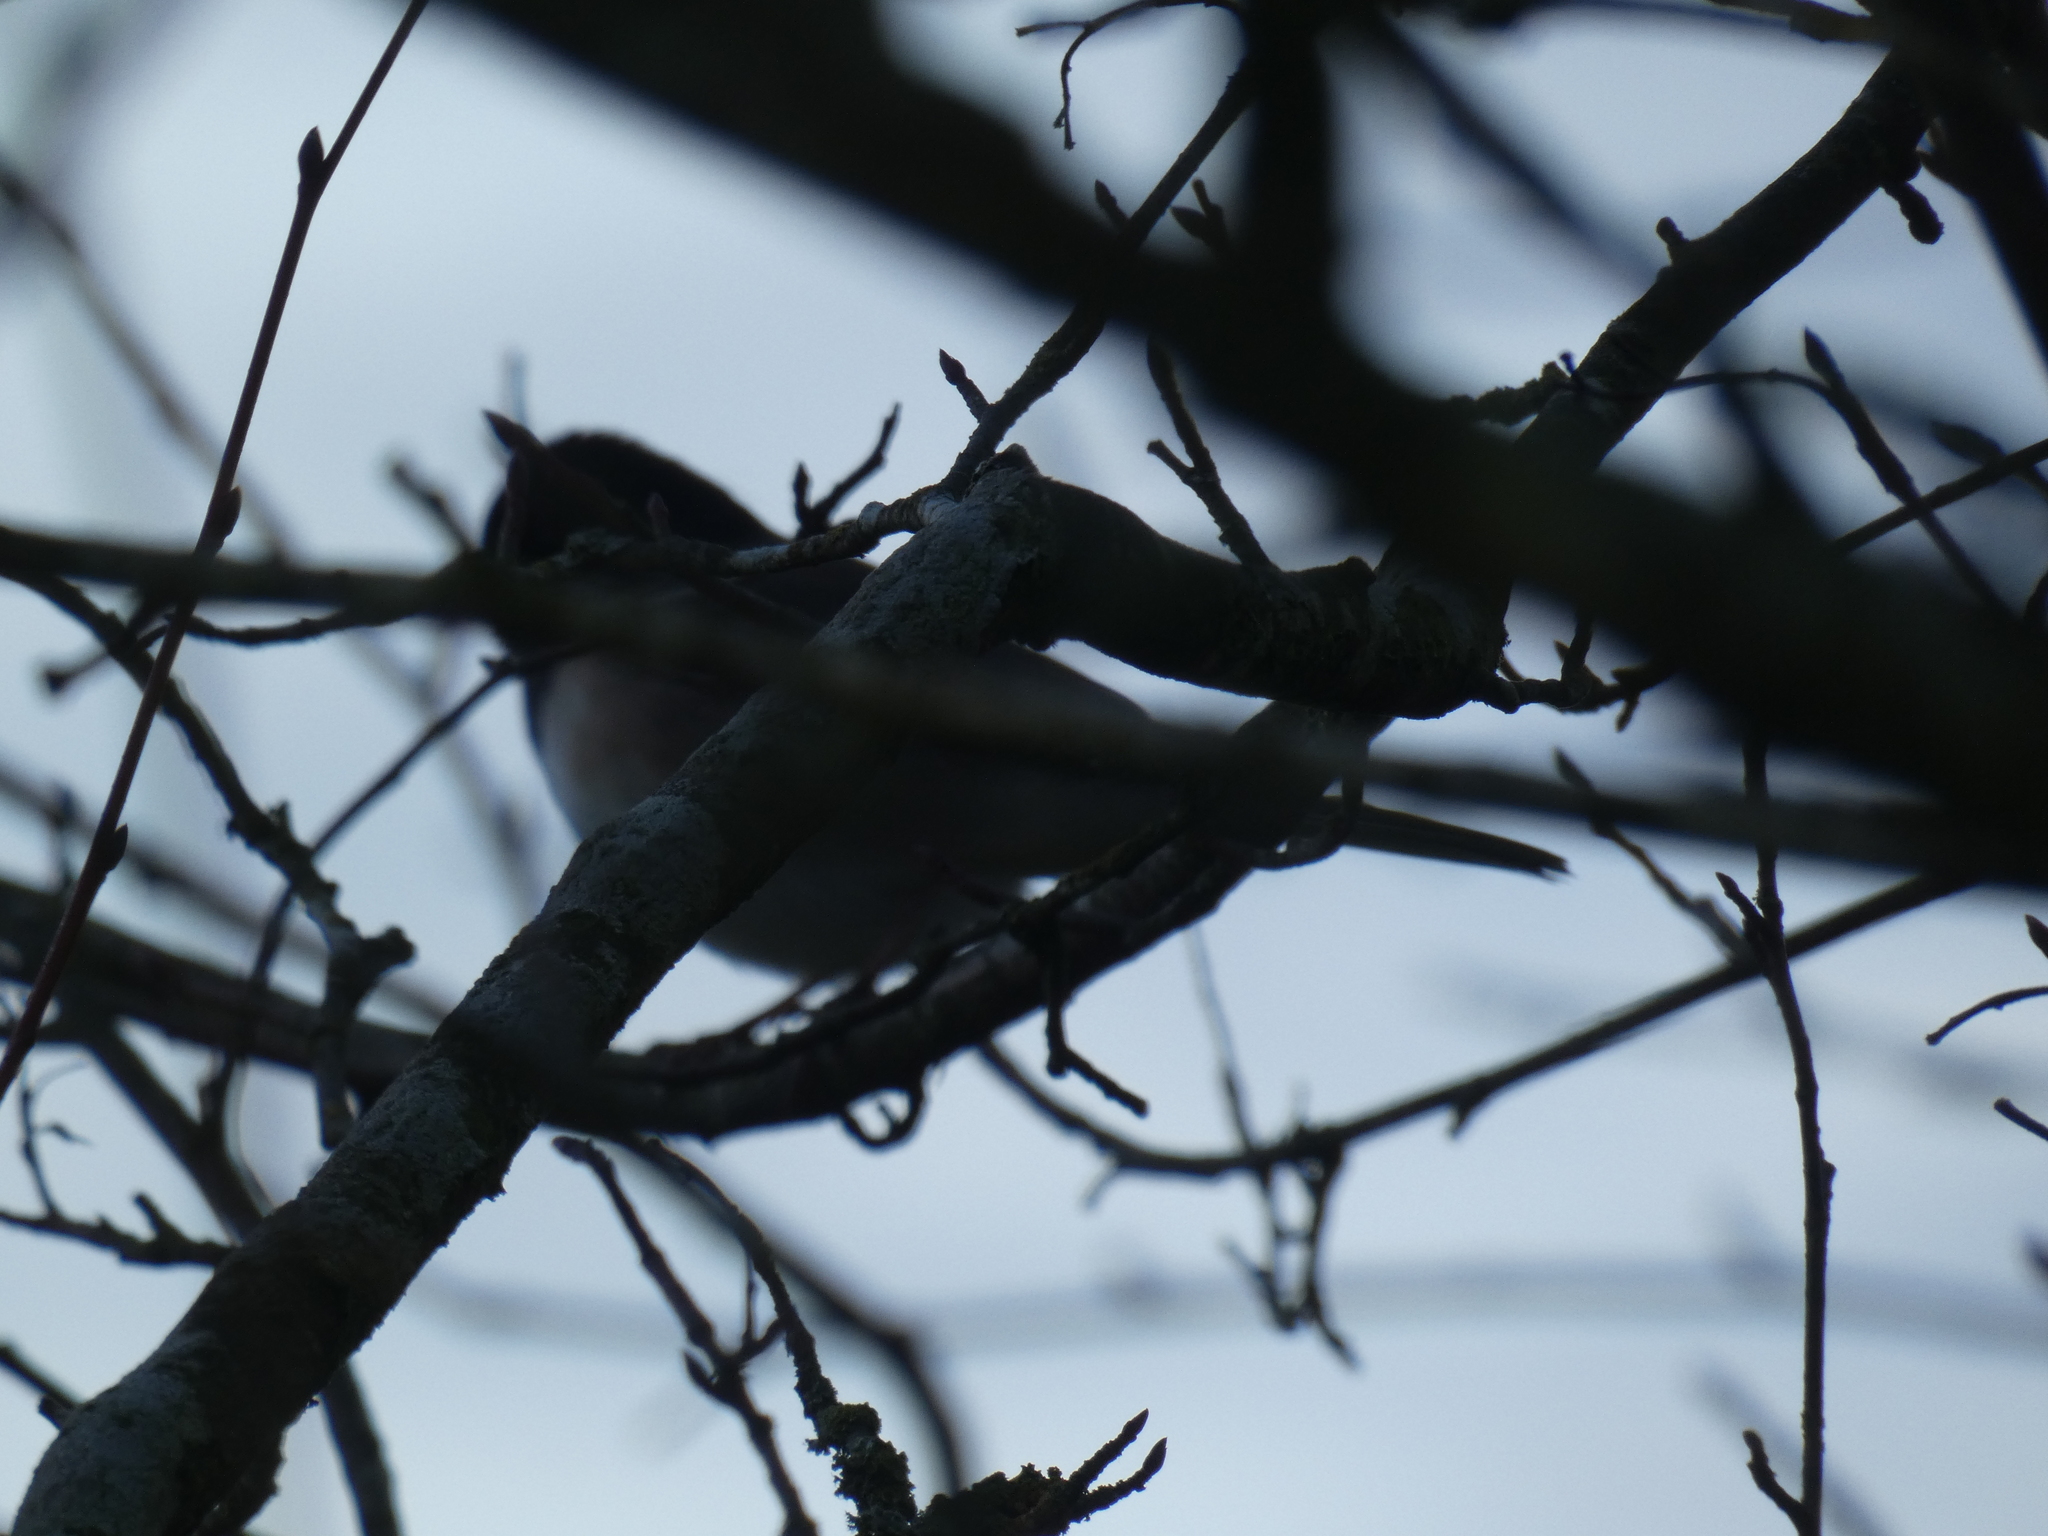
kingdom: Animalia
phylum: Chordata
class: Aves
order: Passeriformes
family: Passerellidae
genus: Junco
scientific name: Junco hyemalis
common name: Dark-eyed junco
